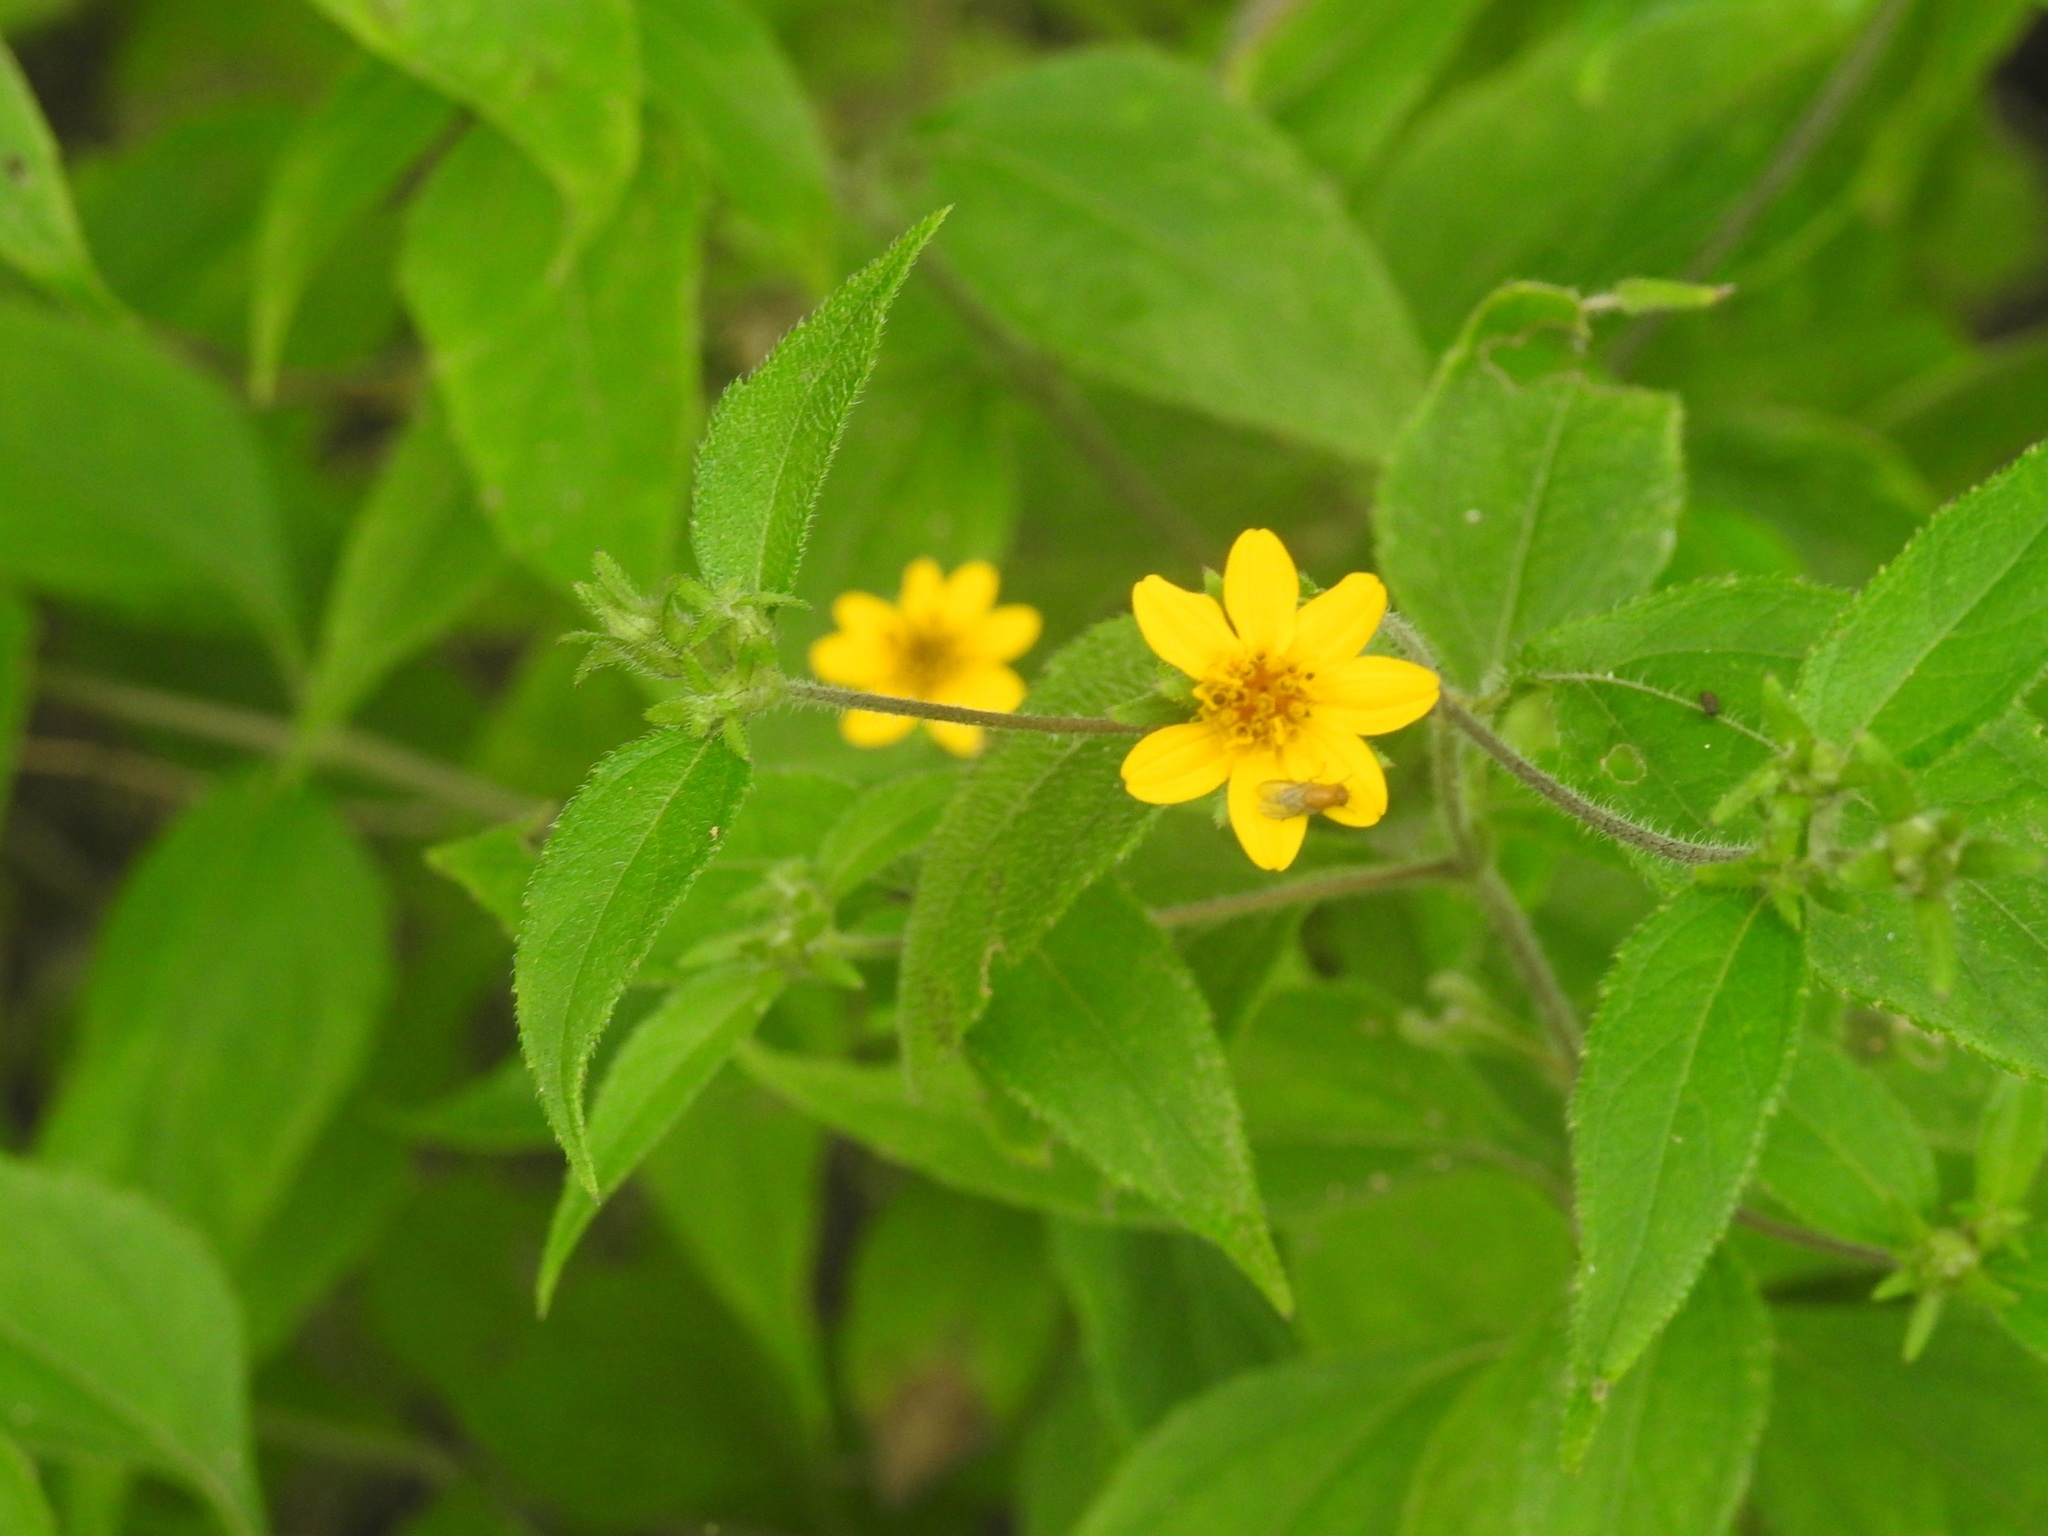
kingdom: Plantae
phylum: Tracheophyta
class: Magnoliopsida
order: Asterales
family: Asteraceae
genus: Aldama
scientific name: Aldama dentata
